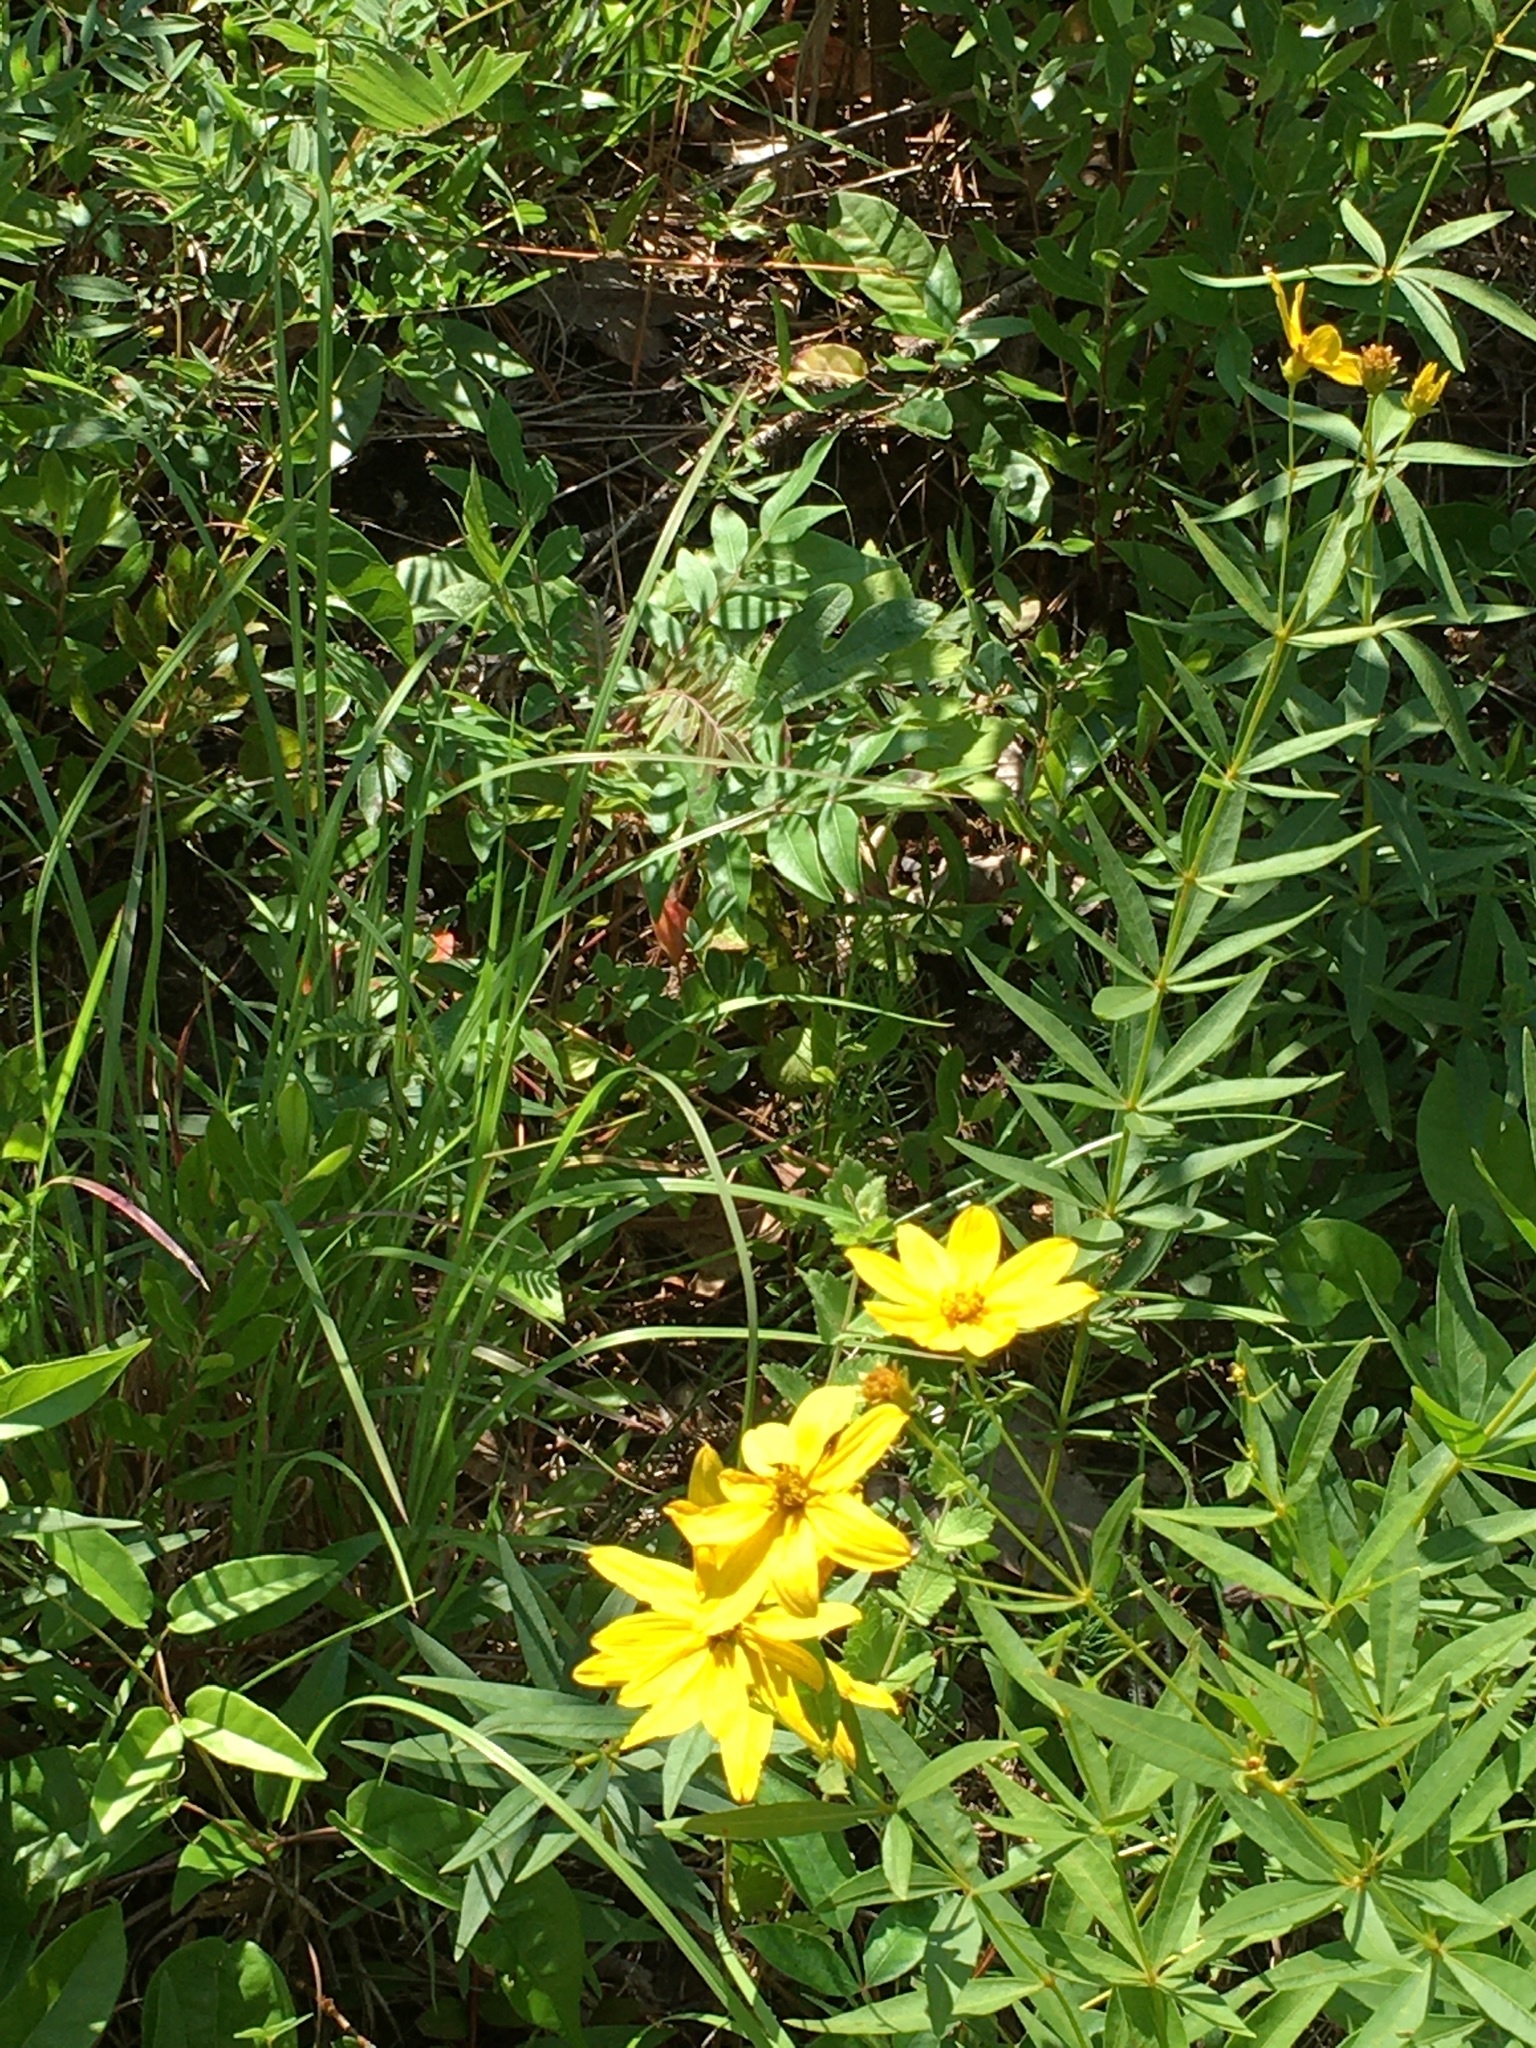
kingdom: Plantae
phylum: Tracheophyta
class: Magnoliopsida
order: Asterales
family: Asteraceae
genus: Coreopsis
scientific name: Coreopsis major
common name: Forest tickseed
